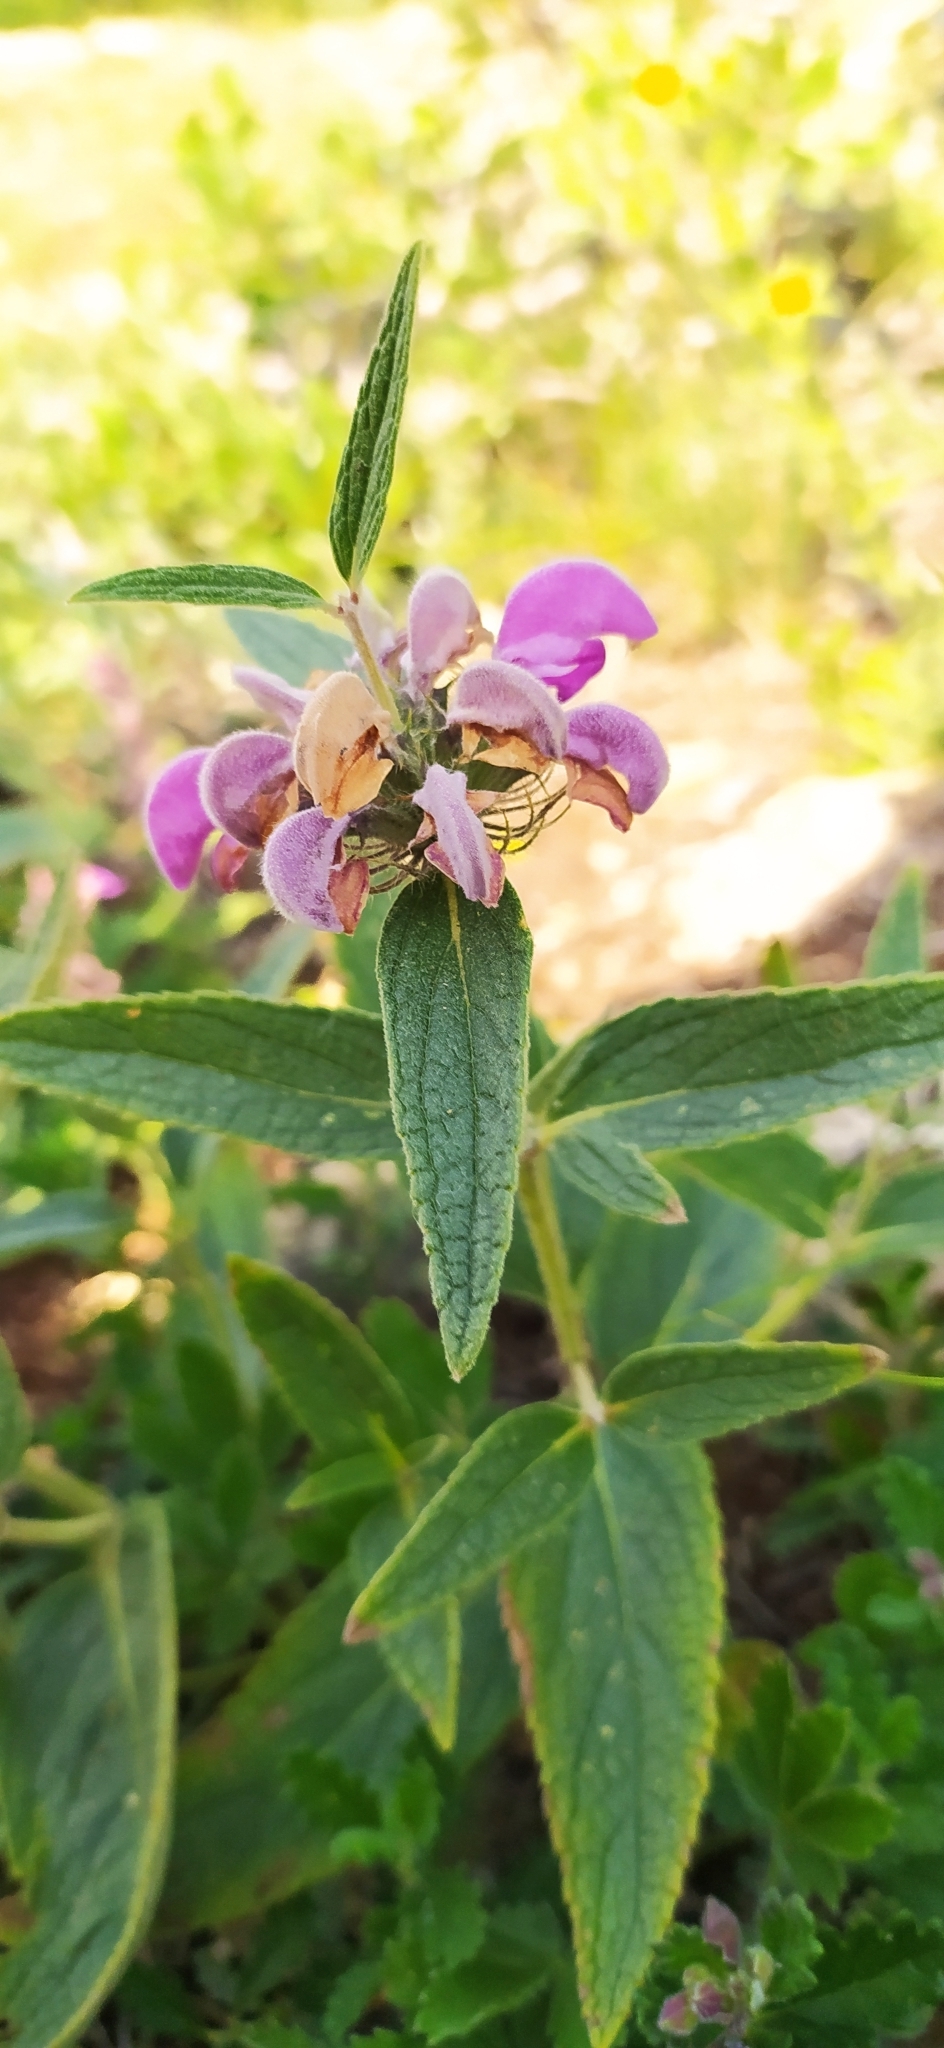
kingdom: Plantae
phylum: Tracheophyta
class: Magnoliopsida
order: Lamiales
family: Lamiaceae
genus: Phlomis
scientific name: Phlomis herba-venti
